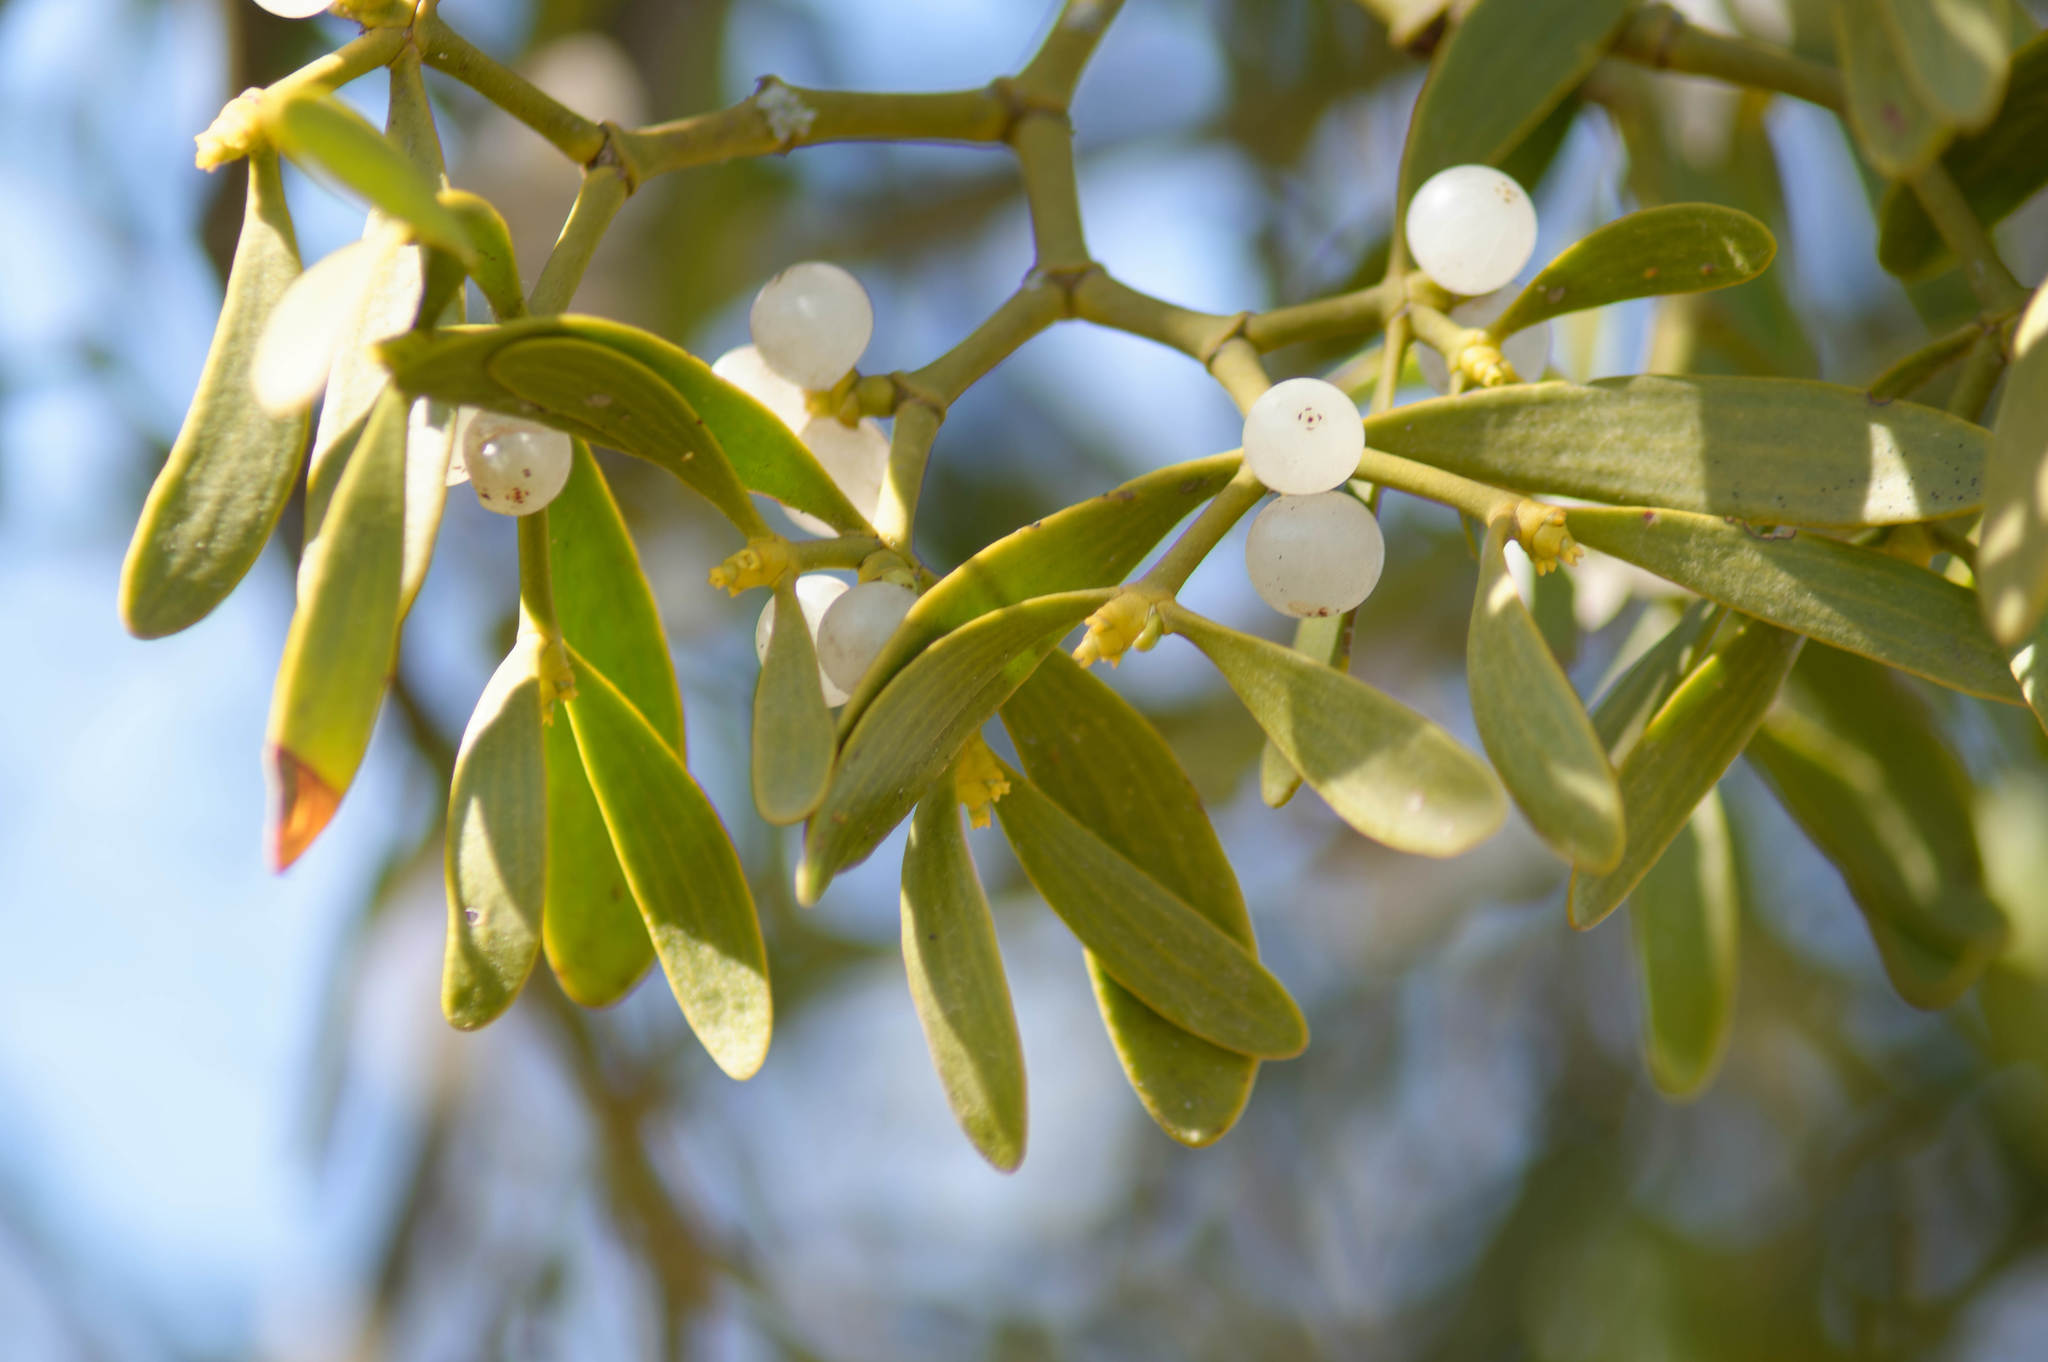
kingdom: Plantae
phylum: Tracheophyta
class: Magnoliopsida
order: Santalales
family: Viscaceae
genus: Viscum
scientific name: Viscum album
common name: Mistletoe
